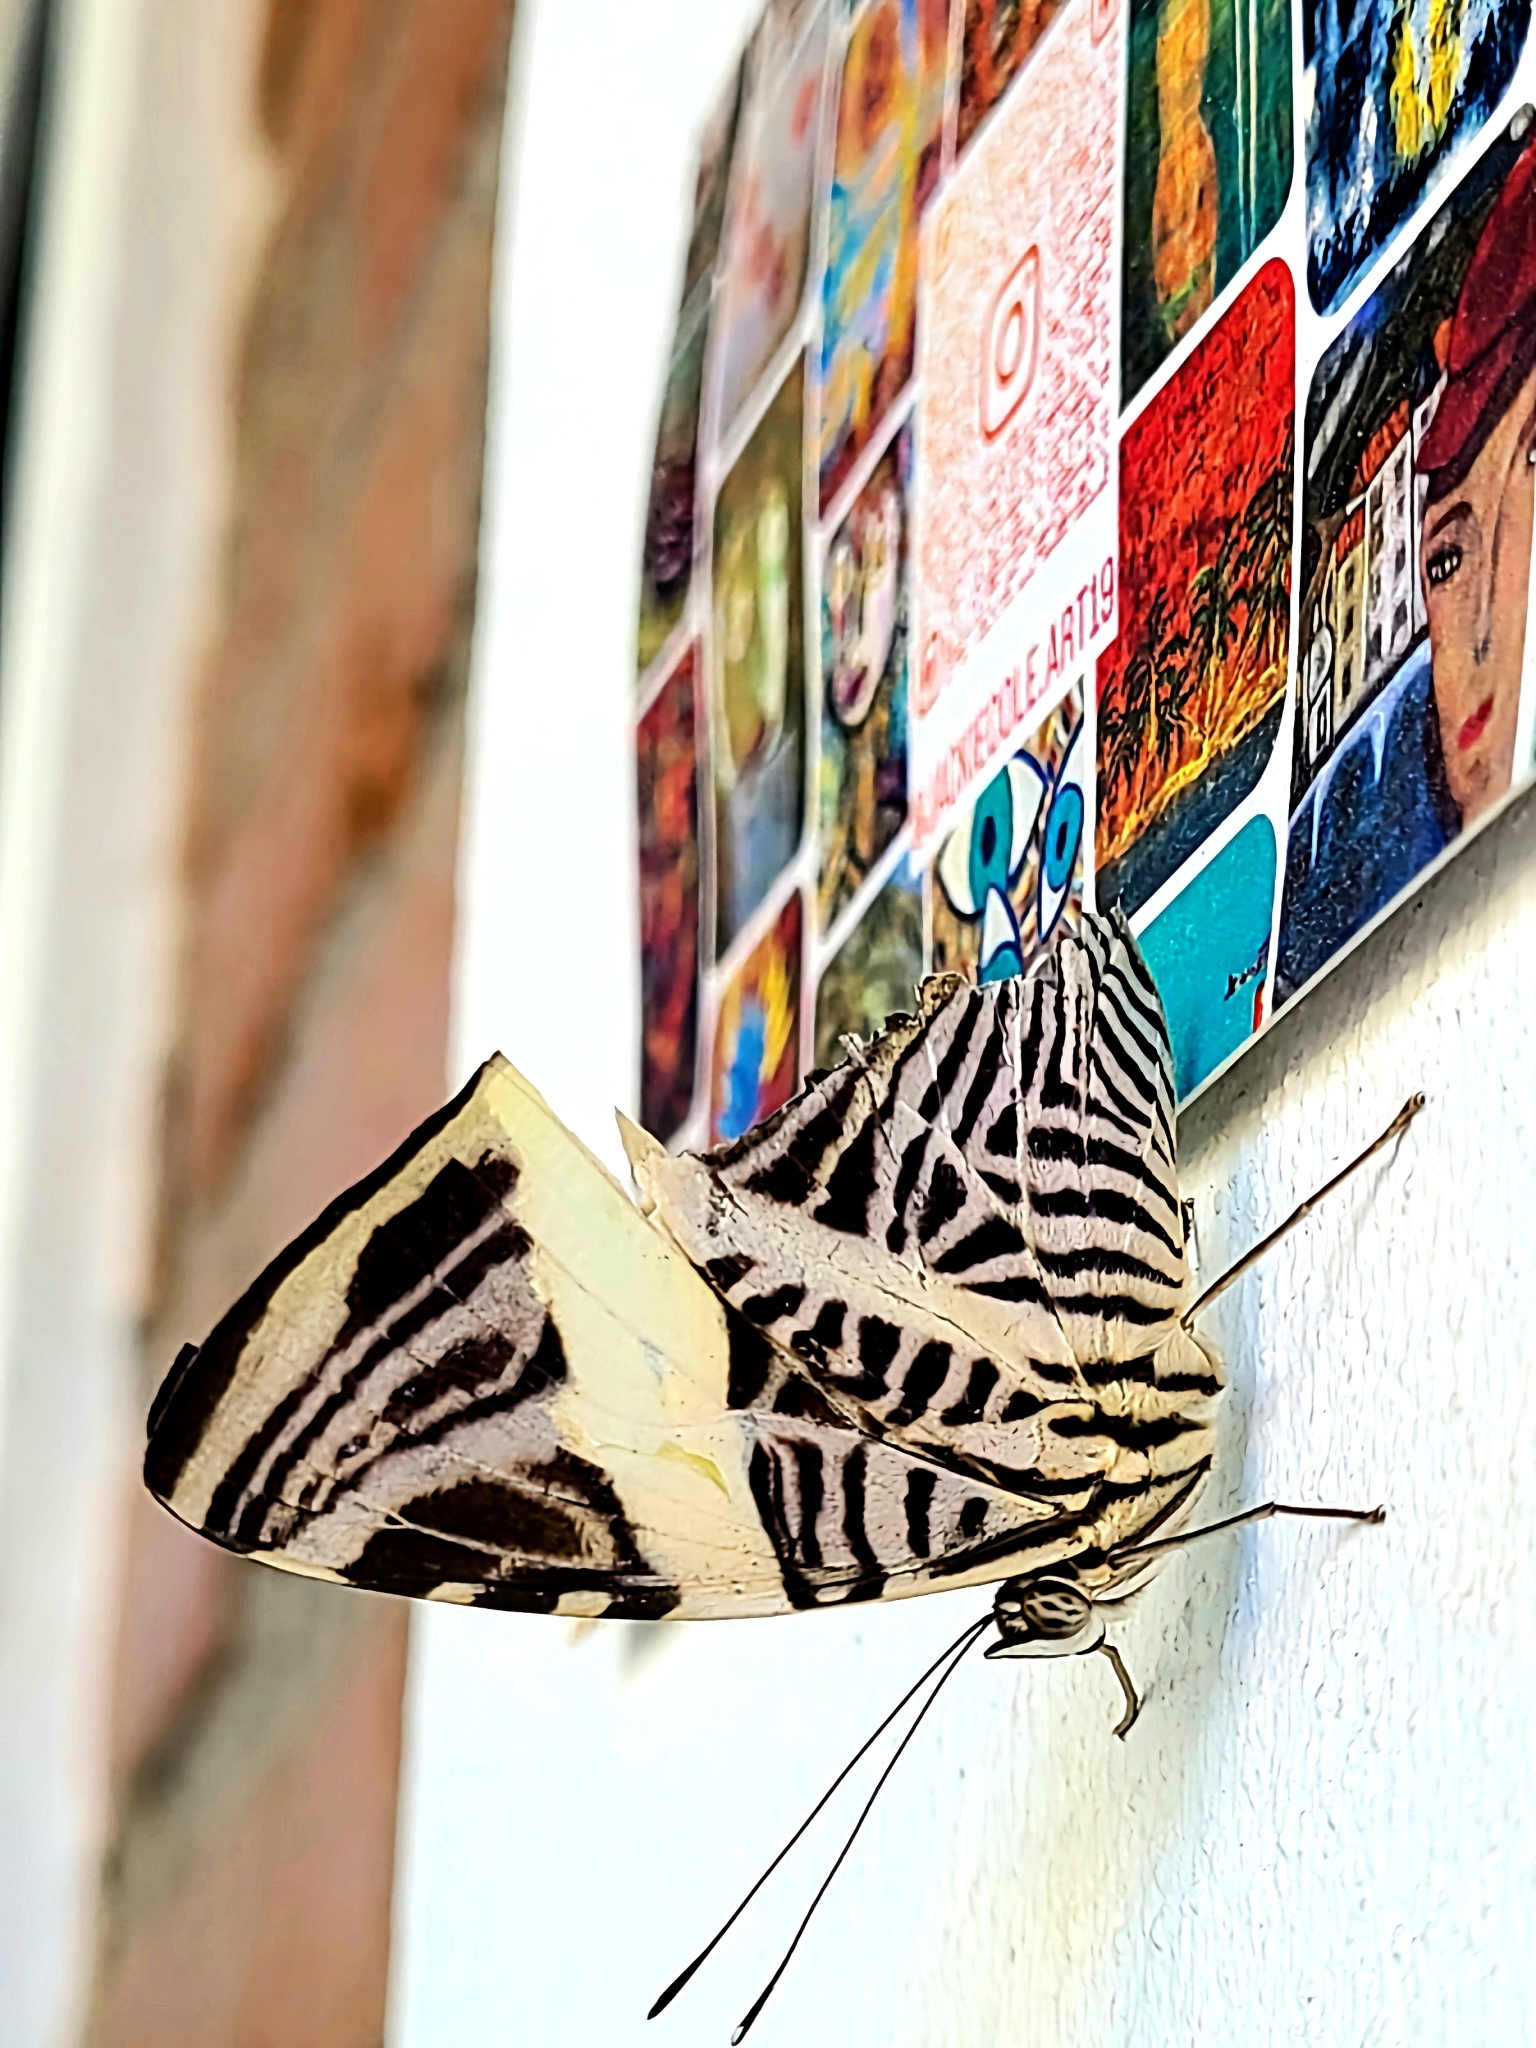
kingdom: Animalia
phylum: Arthropoda
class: Insecta
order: Lepidoptera
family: Nymphalidae
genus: Colobura
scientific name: Colobura dirce
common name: Dirce beauty
